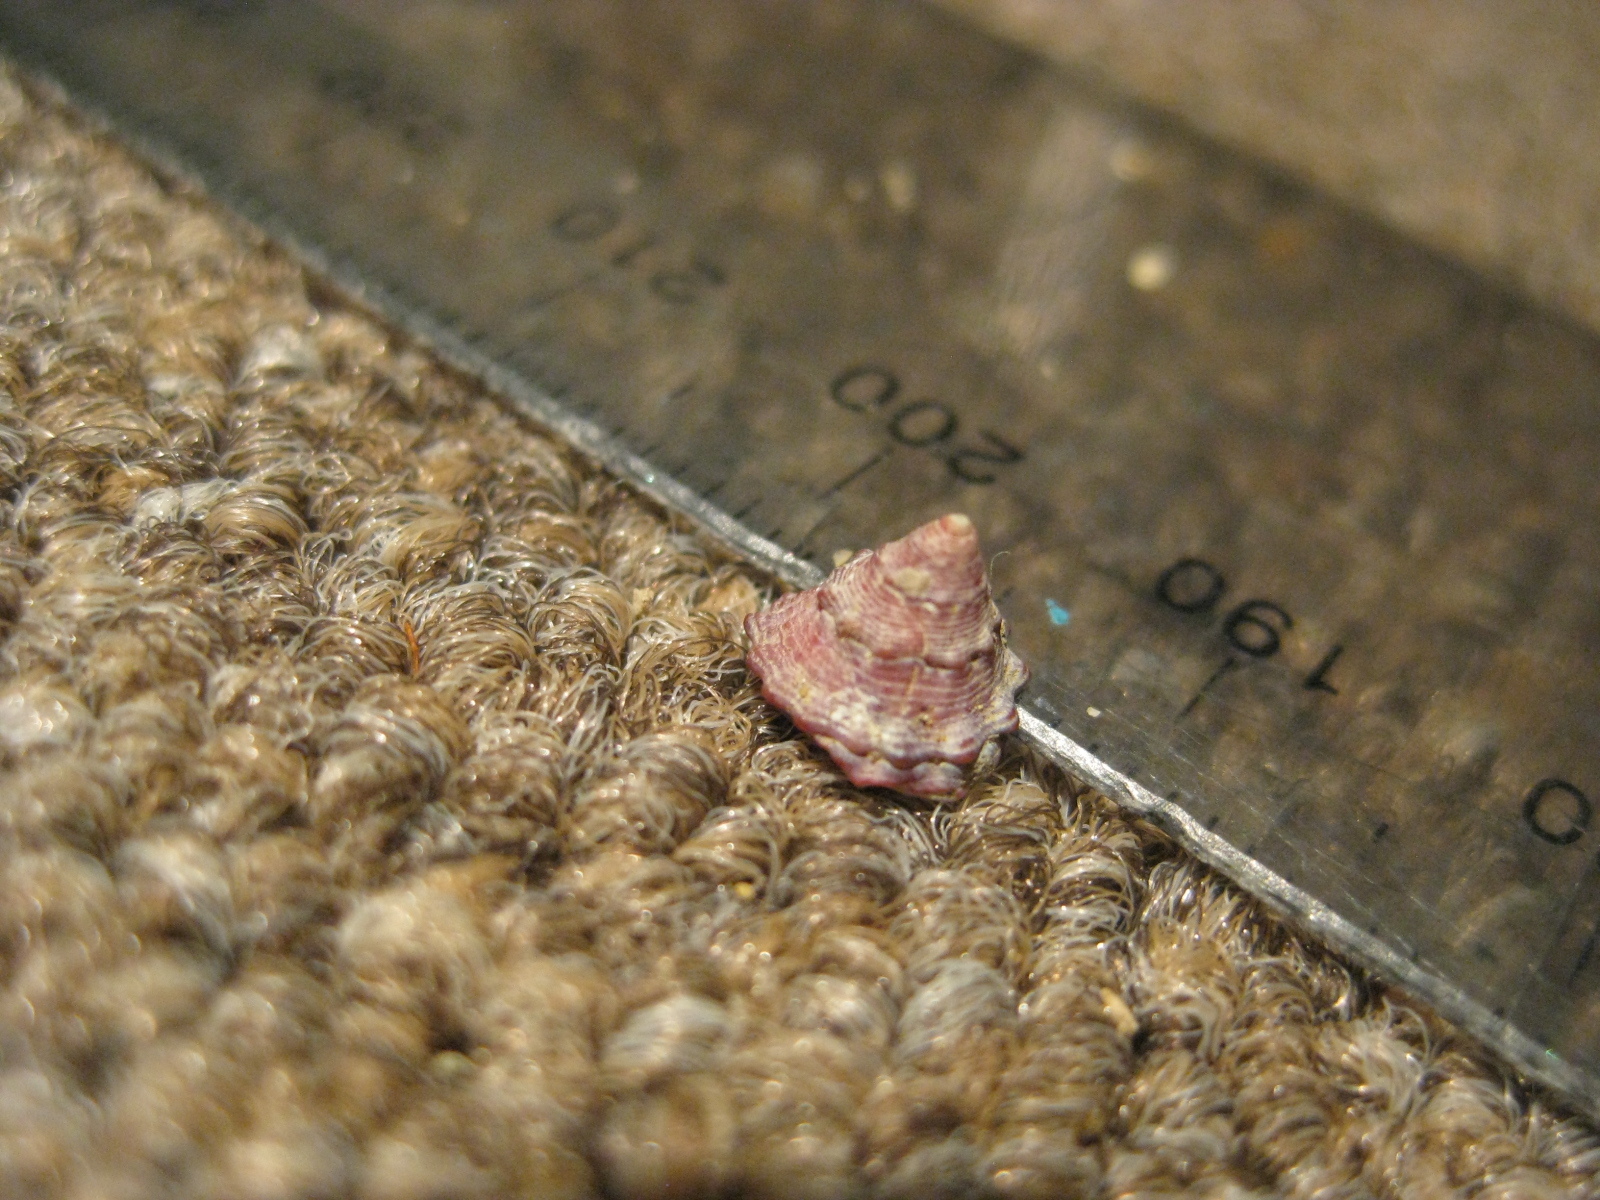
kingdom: Animalia
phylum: Mollusca
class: Gastropoda
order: Trochida
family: Trochidae
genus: Coelotrochus
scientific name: Coelotrochus viridis
